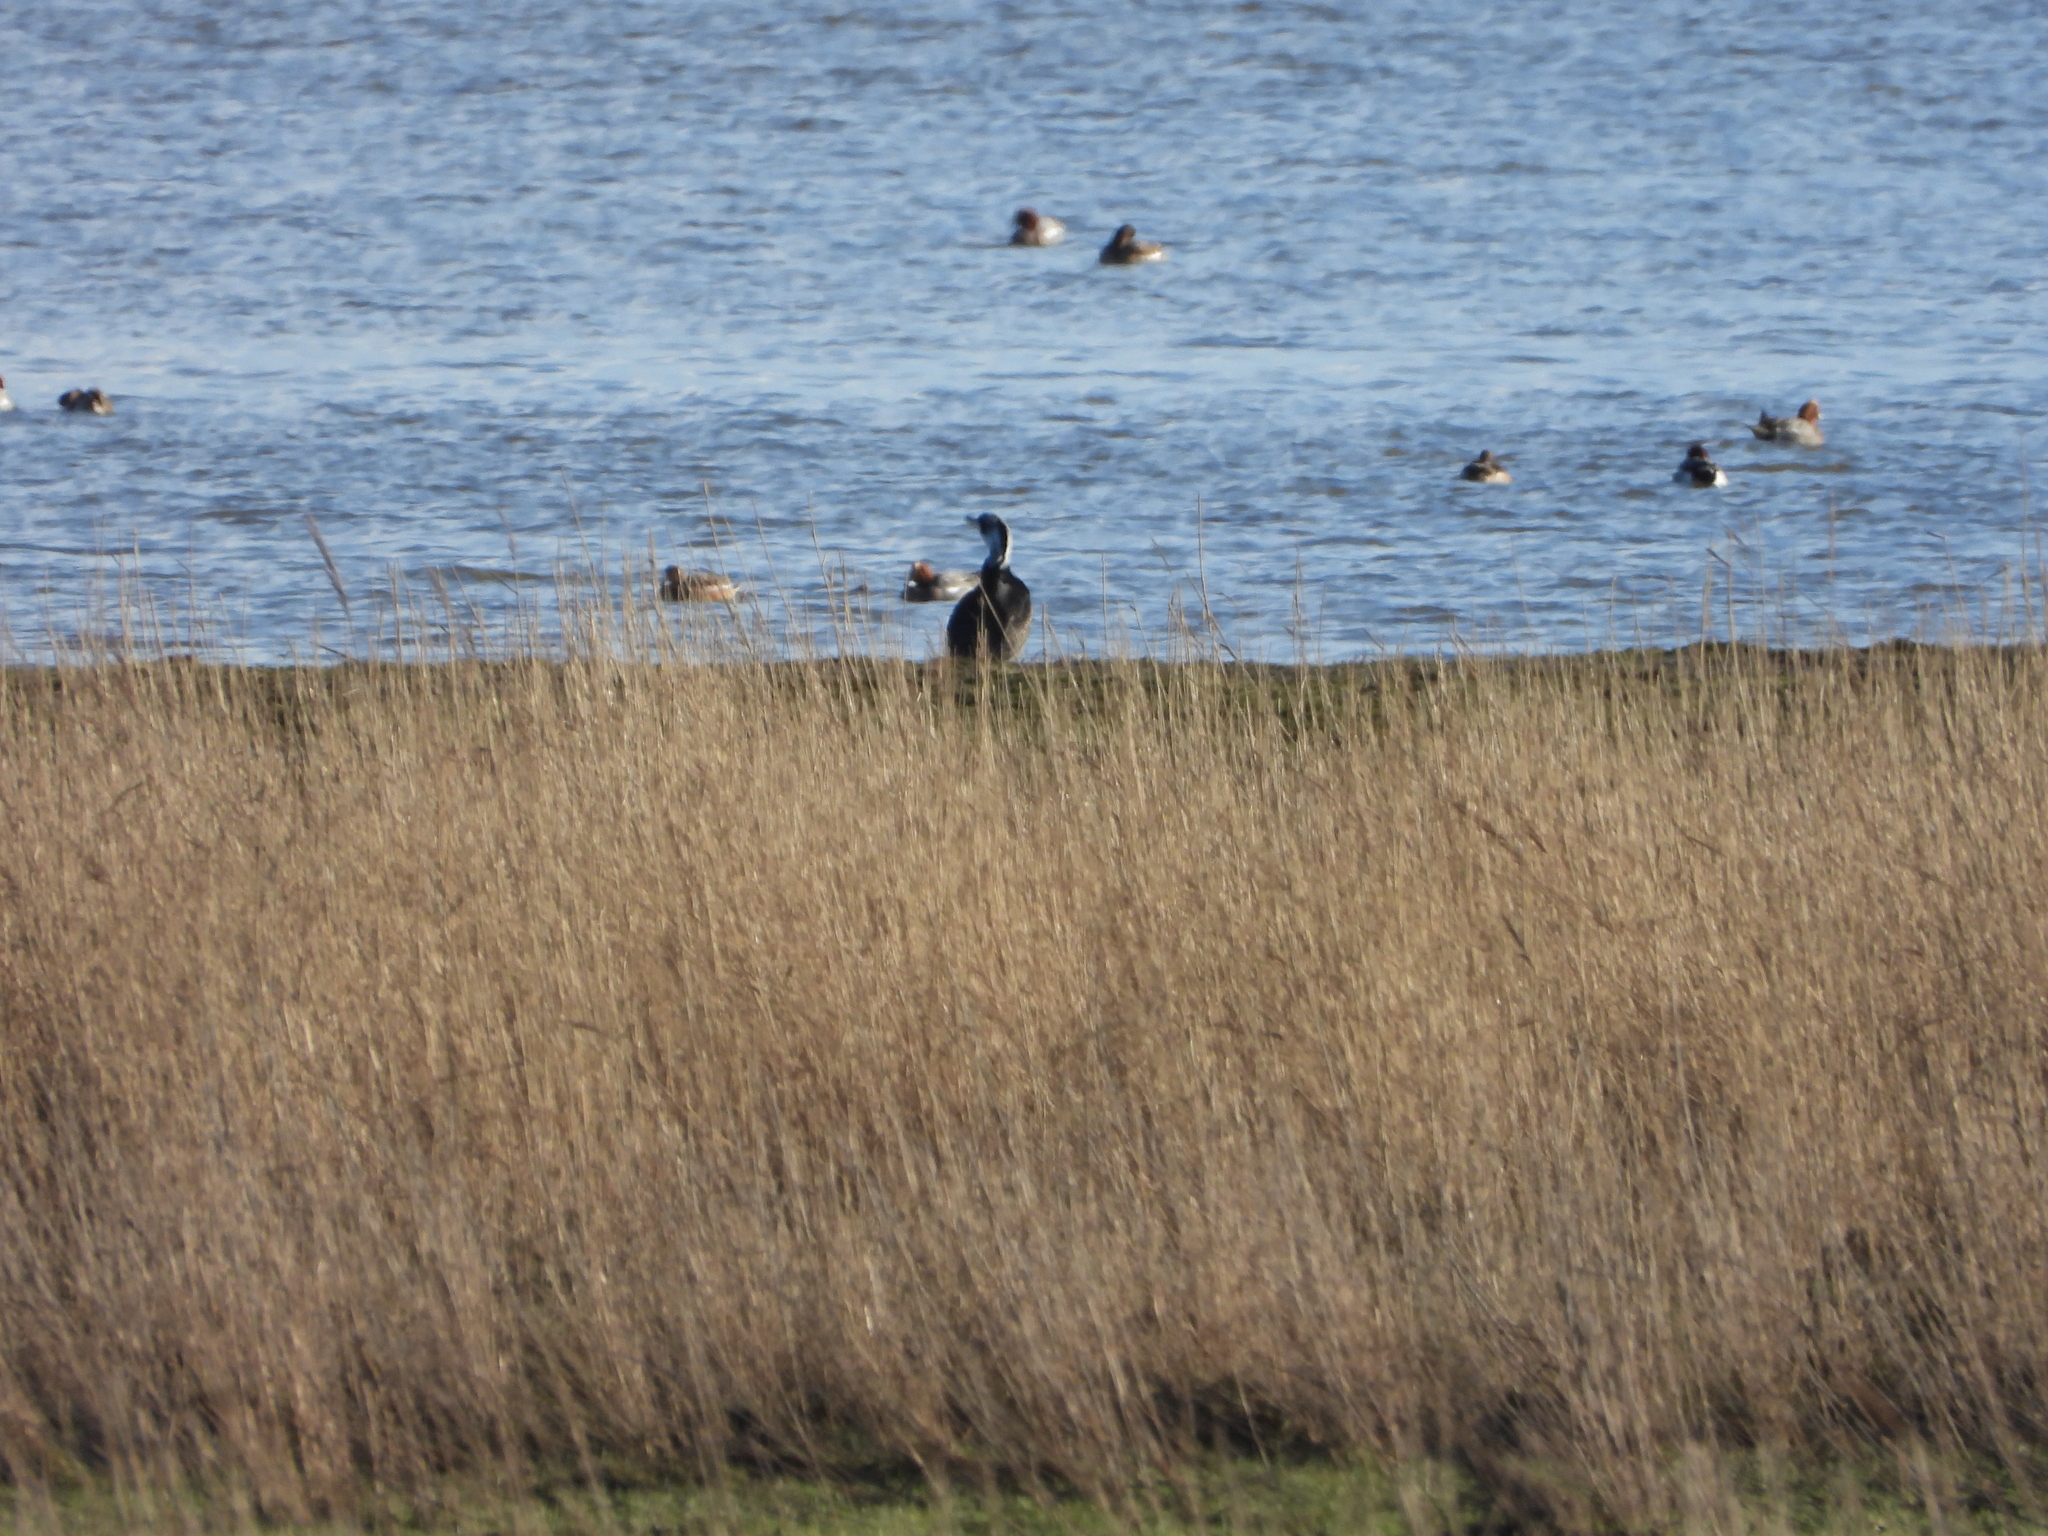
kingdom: Animalia
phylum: Chordata
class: Aves
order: Suliformes
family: Phalacrocoracidae
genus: Phalacrocorax
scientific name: Phalacrocorax carbo
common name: Great cormorant
